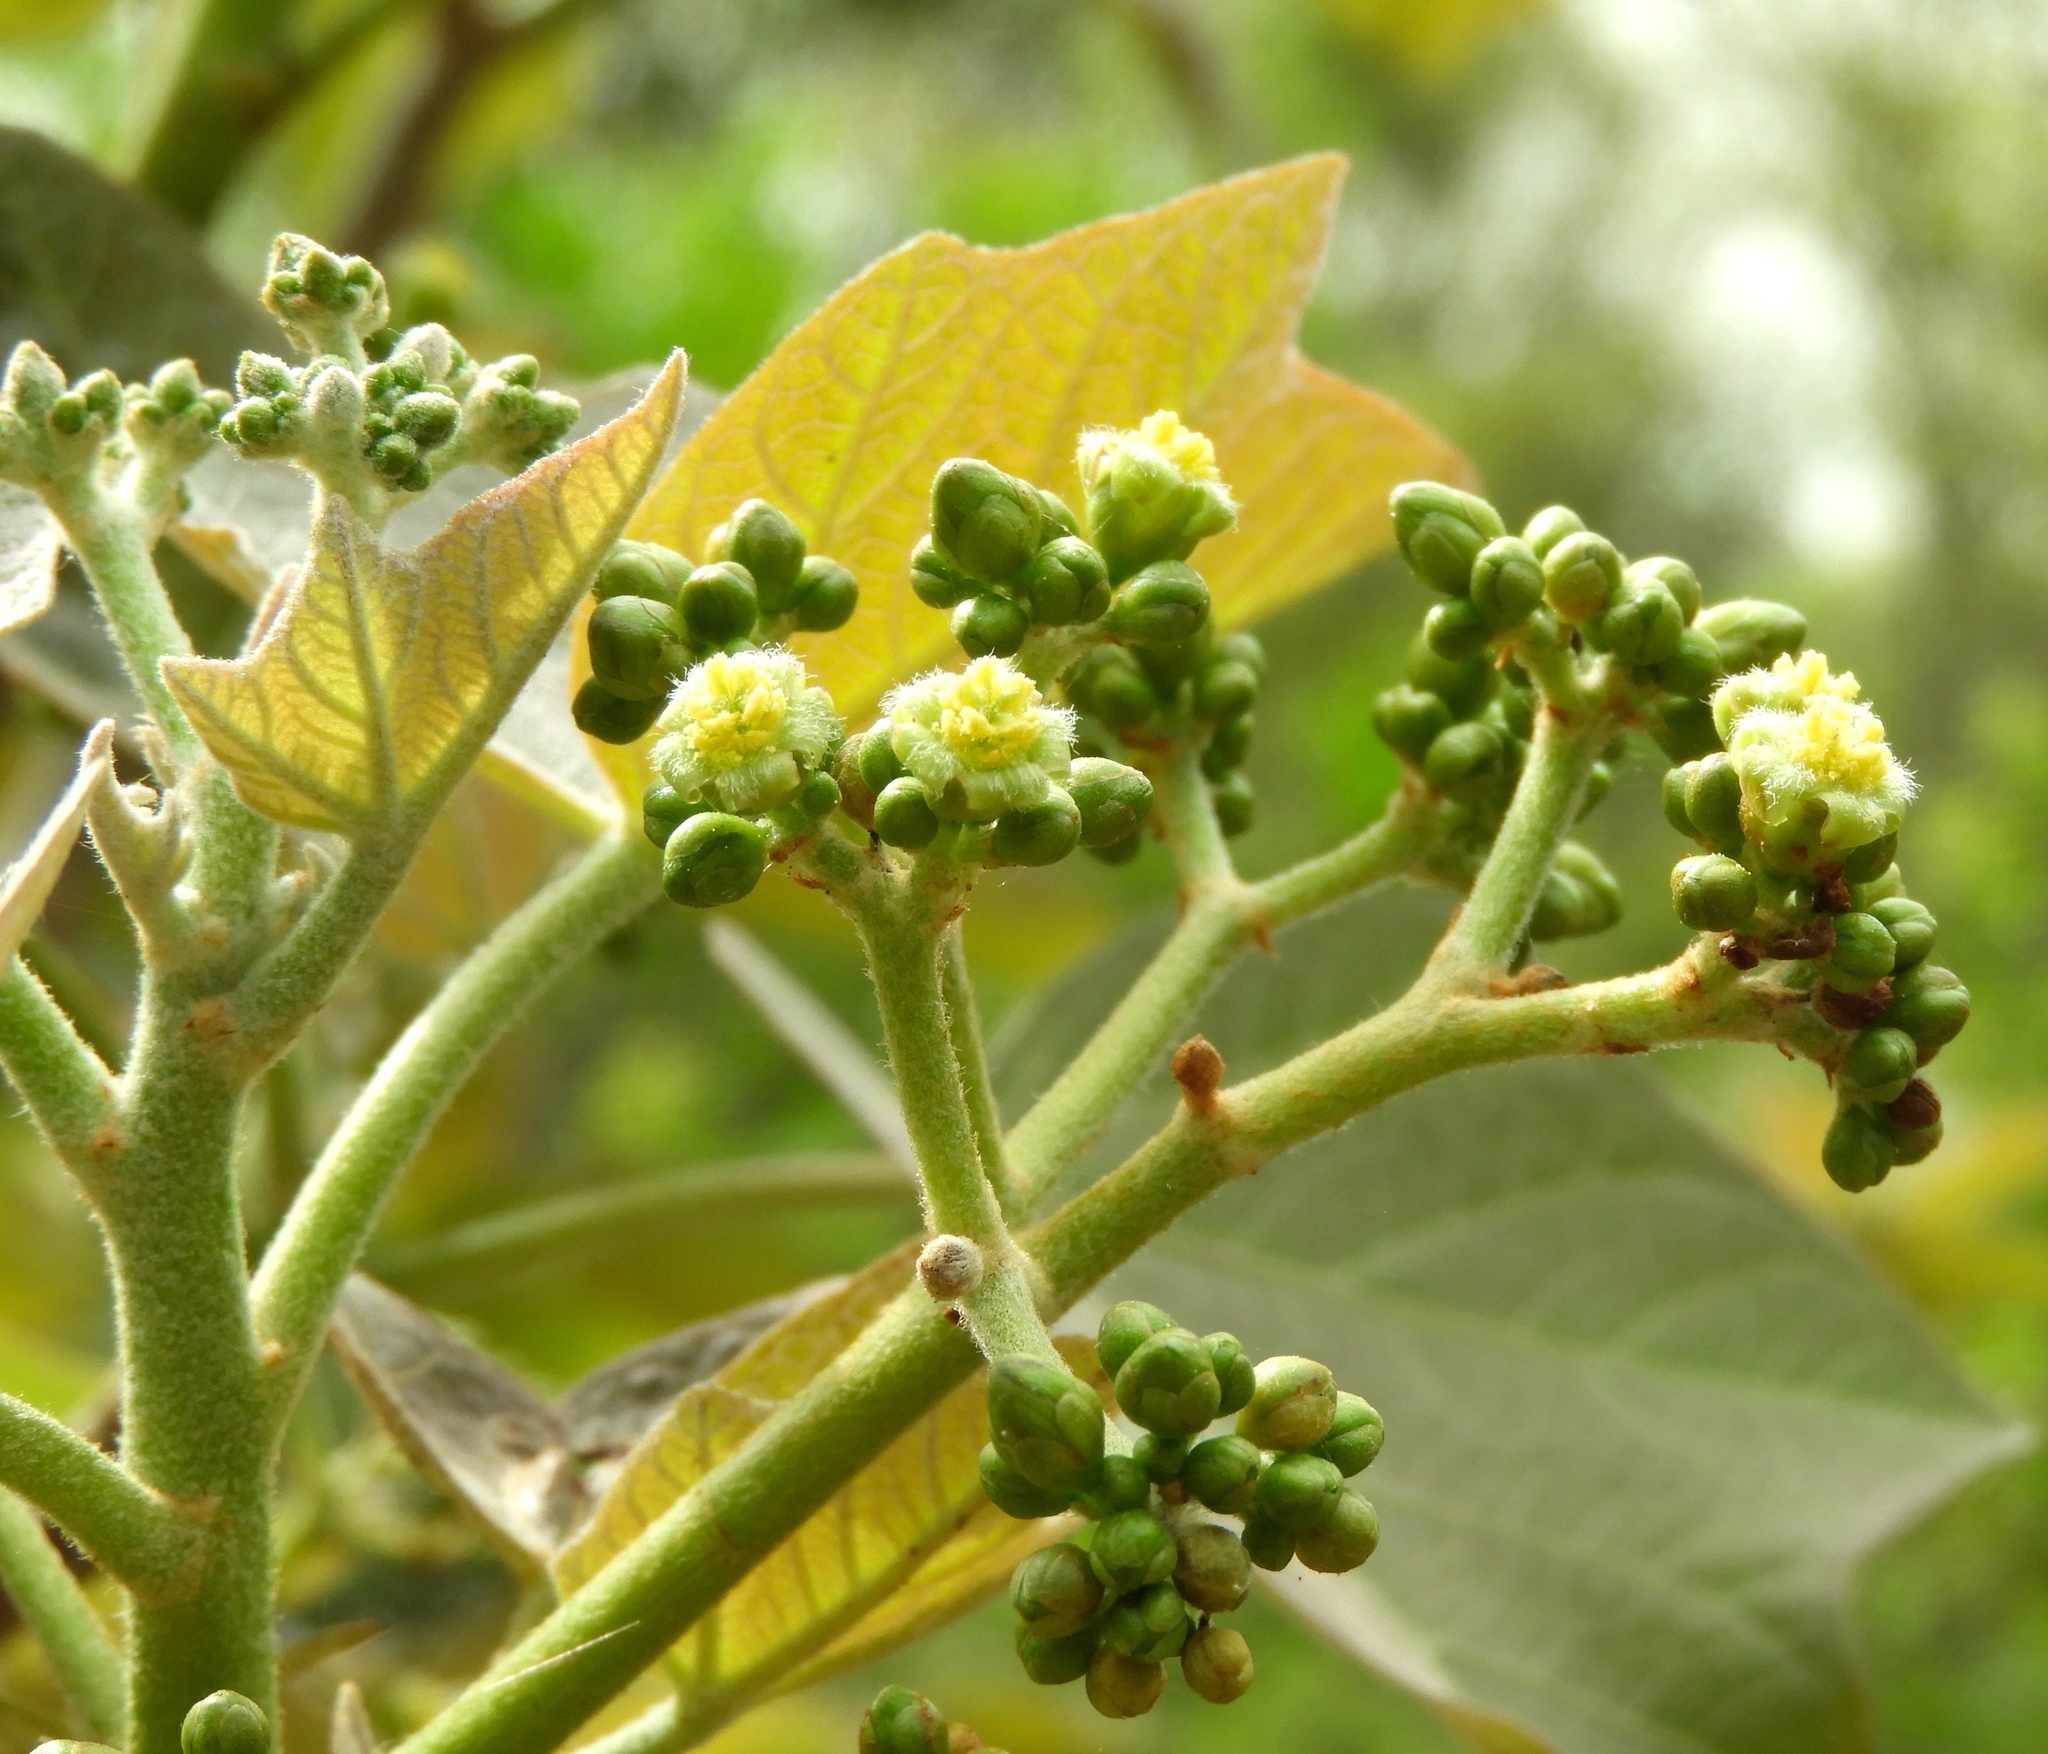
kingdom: Plantae
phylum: Tracheophyta
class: Magnoliopsida
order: Malpighiales
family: Euphorbiaceae
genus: Jatropha
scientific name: Jatropha curcas
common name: Barbados nut
